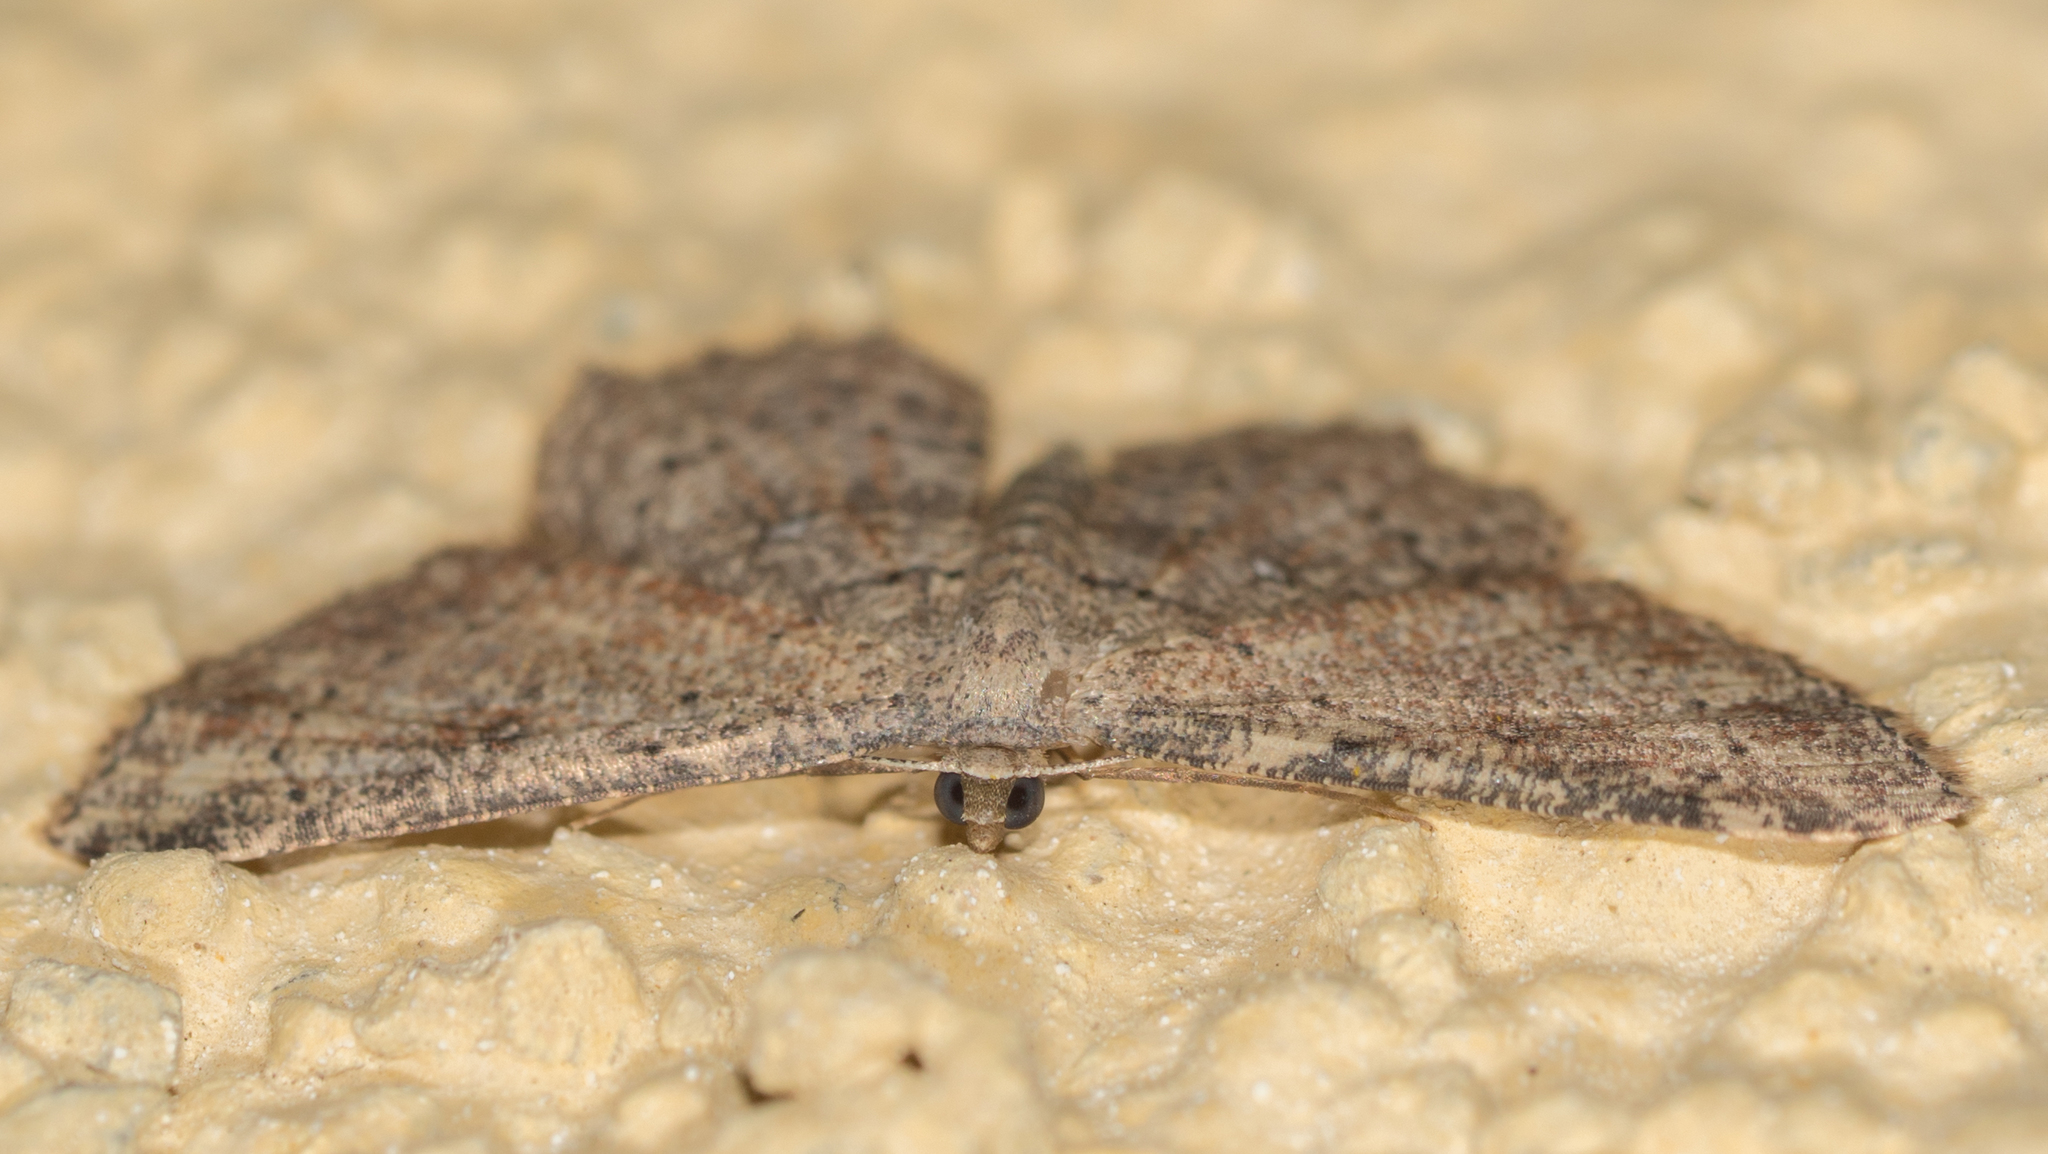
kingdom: Animalia
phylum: Arthropoda
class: Insecta
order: Lepidoptera
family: Geometridae
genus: Cyclophora
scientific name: Cyclophora nanaria
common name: Cankerworm
